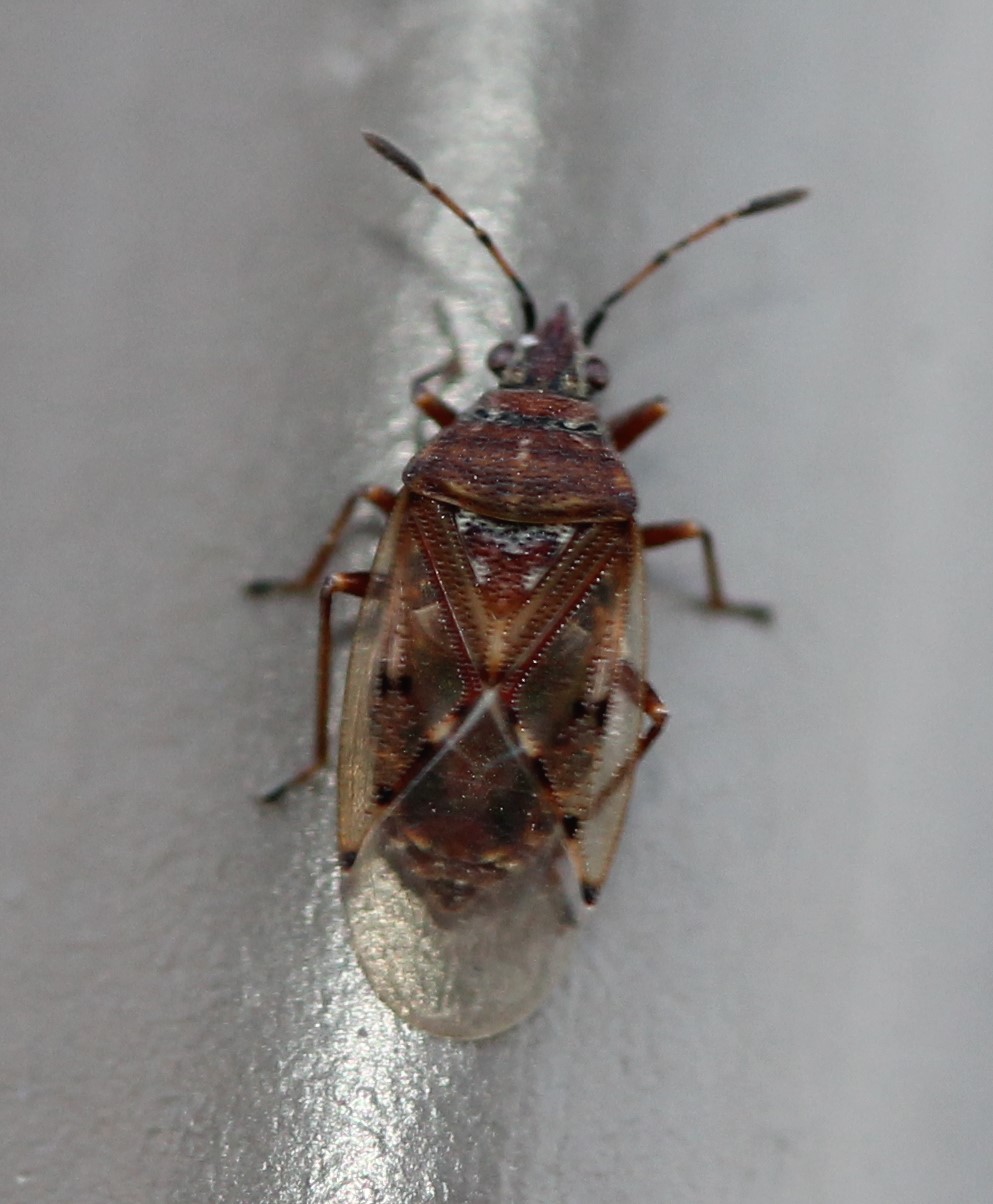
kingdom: Animalia
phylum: Arthropoda
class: Insecta
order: Hemiptera
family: Lygaeidae
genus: Kleidocerys
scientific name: Kleidocerys resedae
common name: Birch catkin bug
